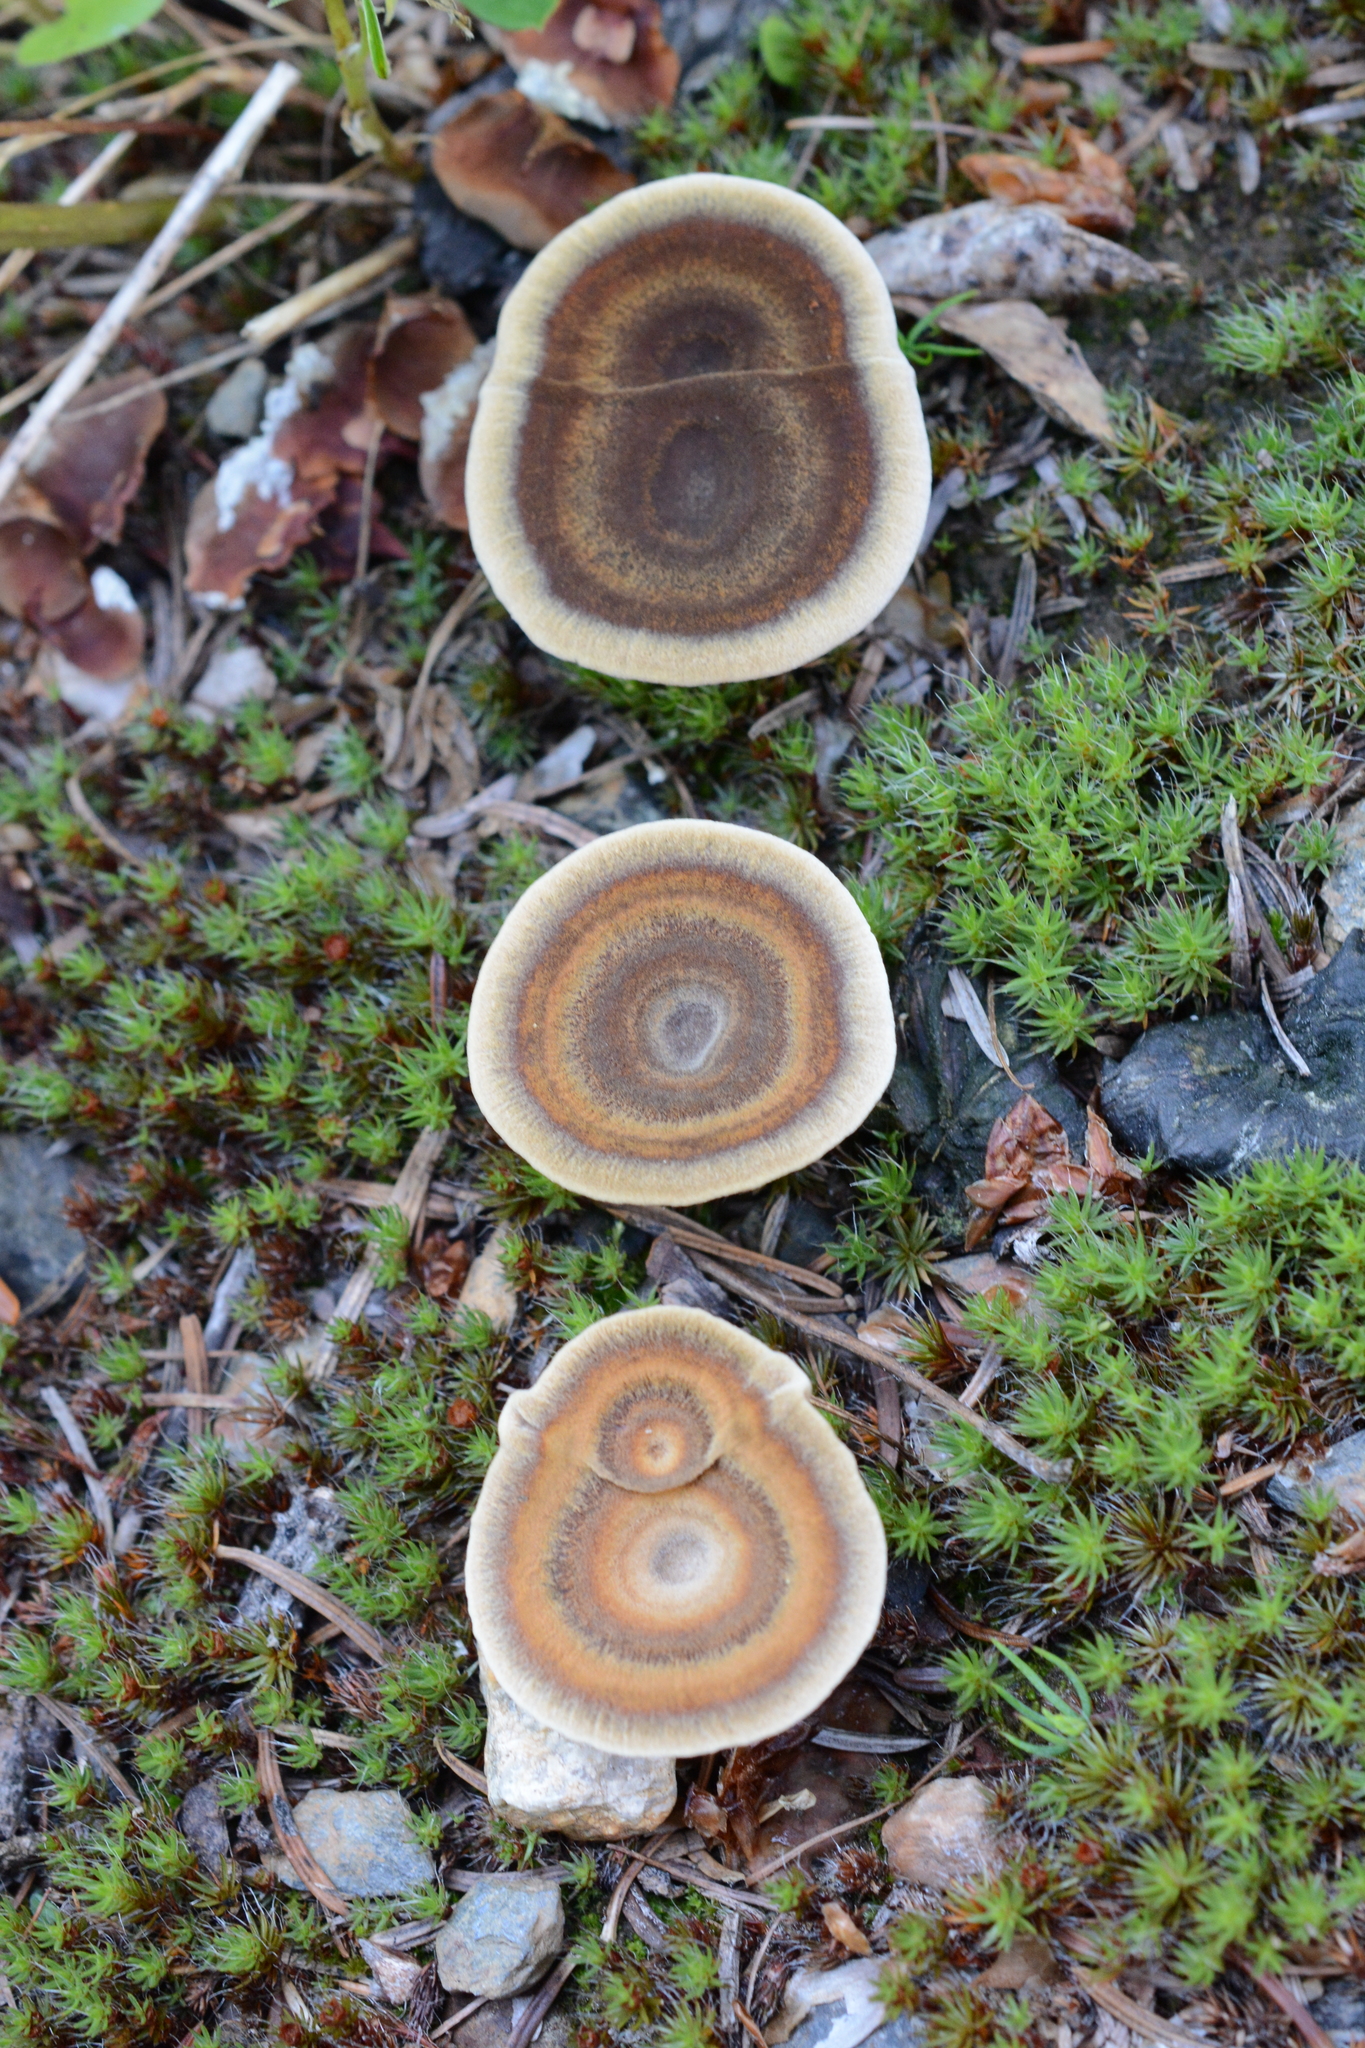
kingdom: Fungi
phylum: Basidiomycota
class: Agaricomycetes
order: Hymenochaetales
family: Hymenochaetaceae
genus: Coltricia
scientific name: Coltricia perennis
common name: Tiger's eye
